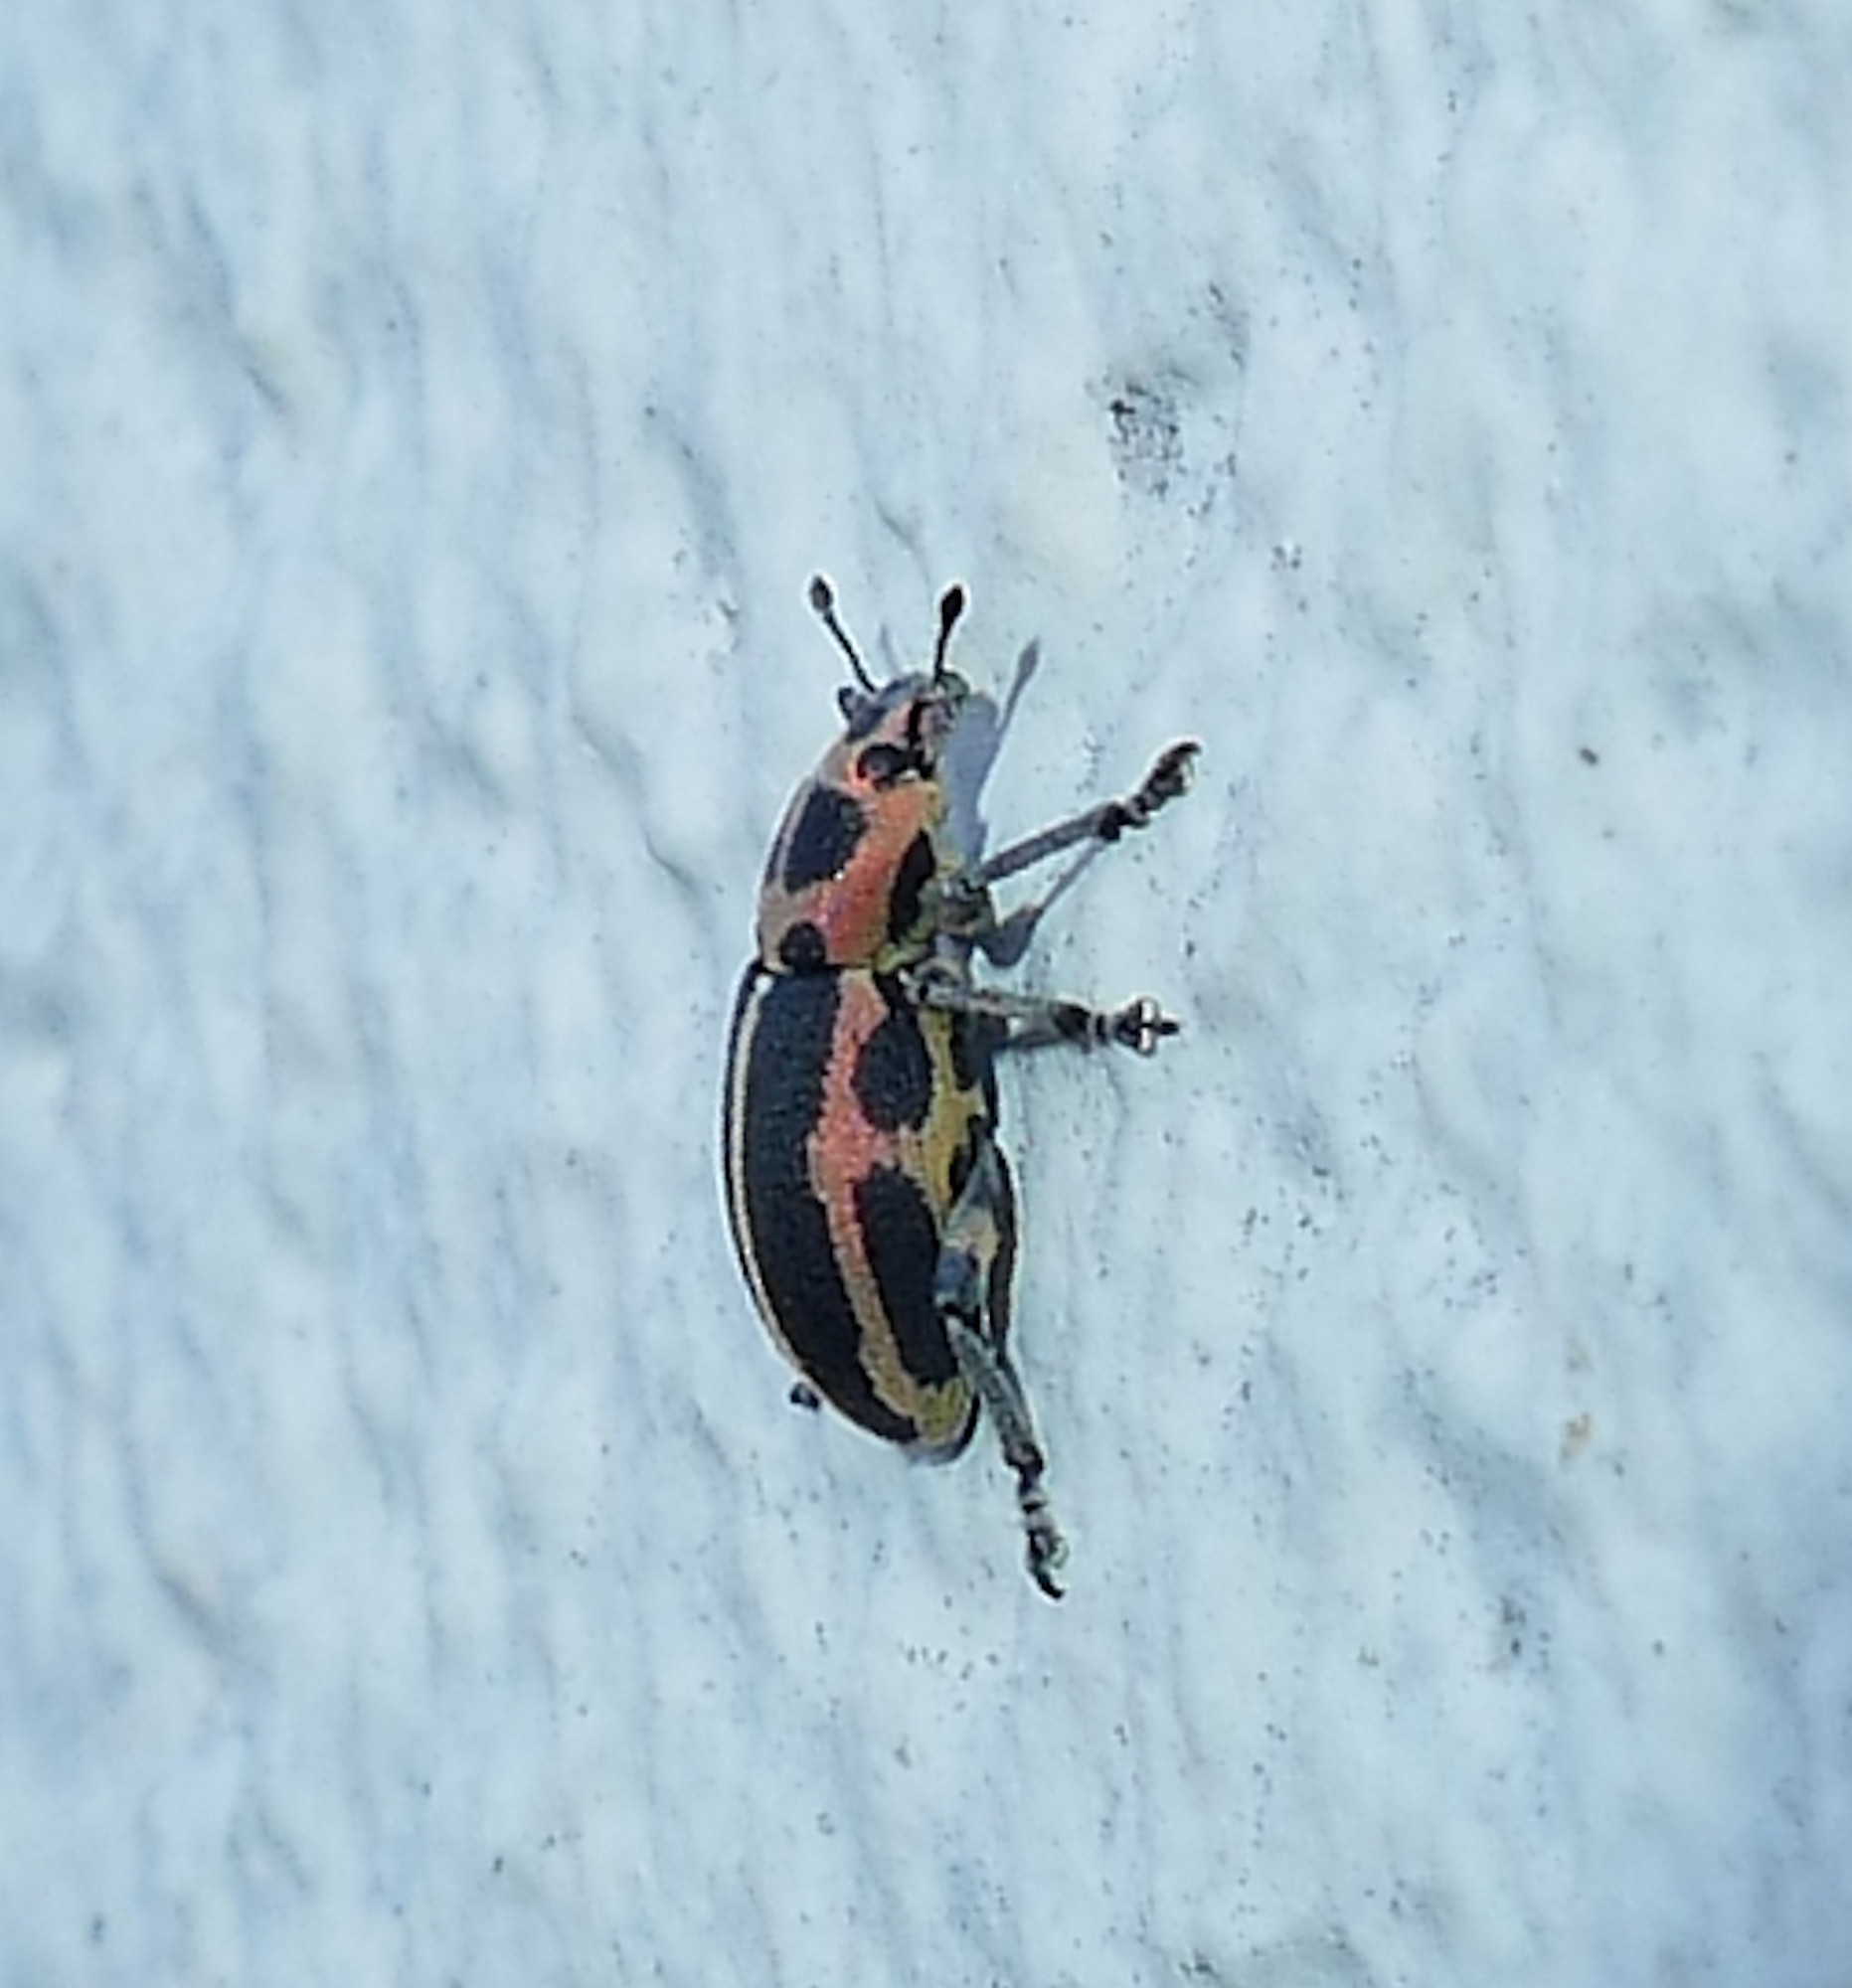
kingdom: Animalia
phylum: Arthropoda
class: Insecta
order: Coleoptera
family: Curculionidae
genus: Eudiagogus
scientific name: Eudiagogus pulcher
